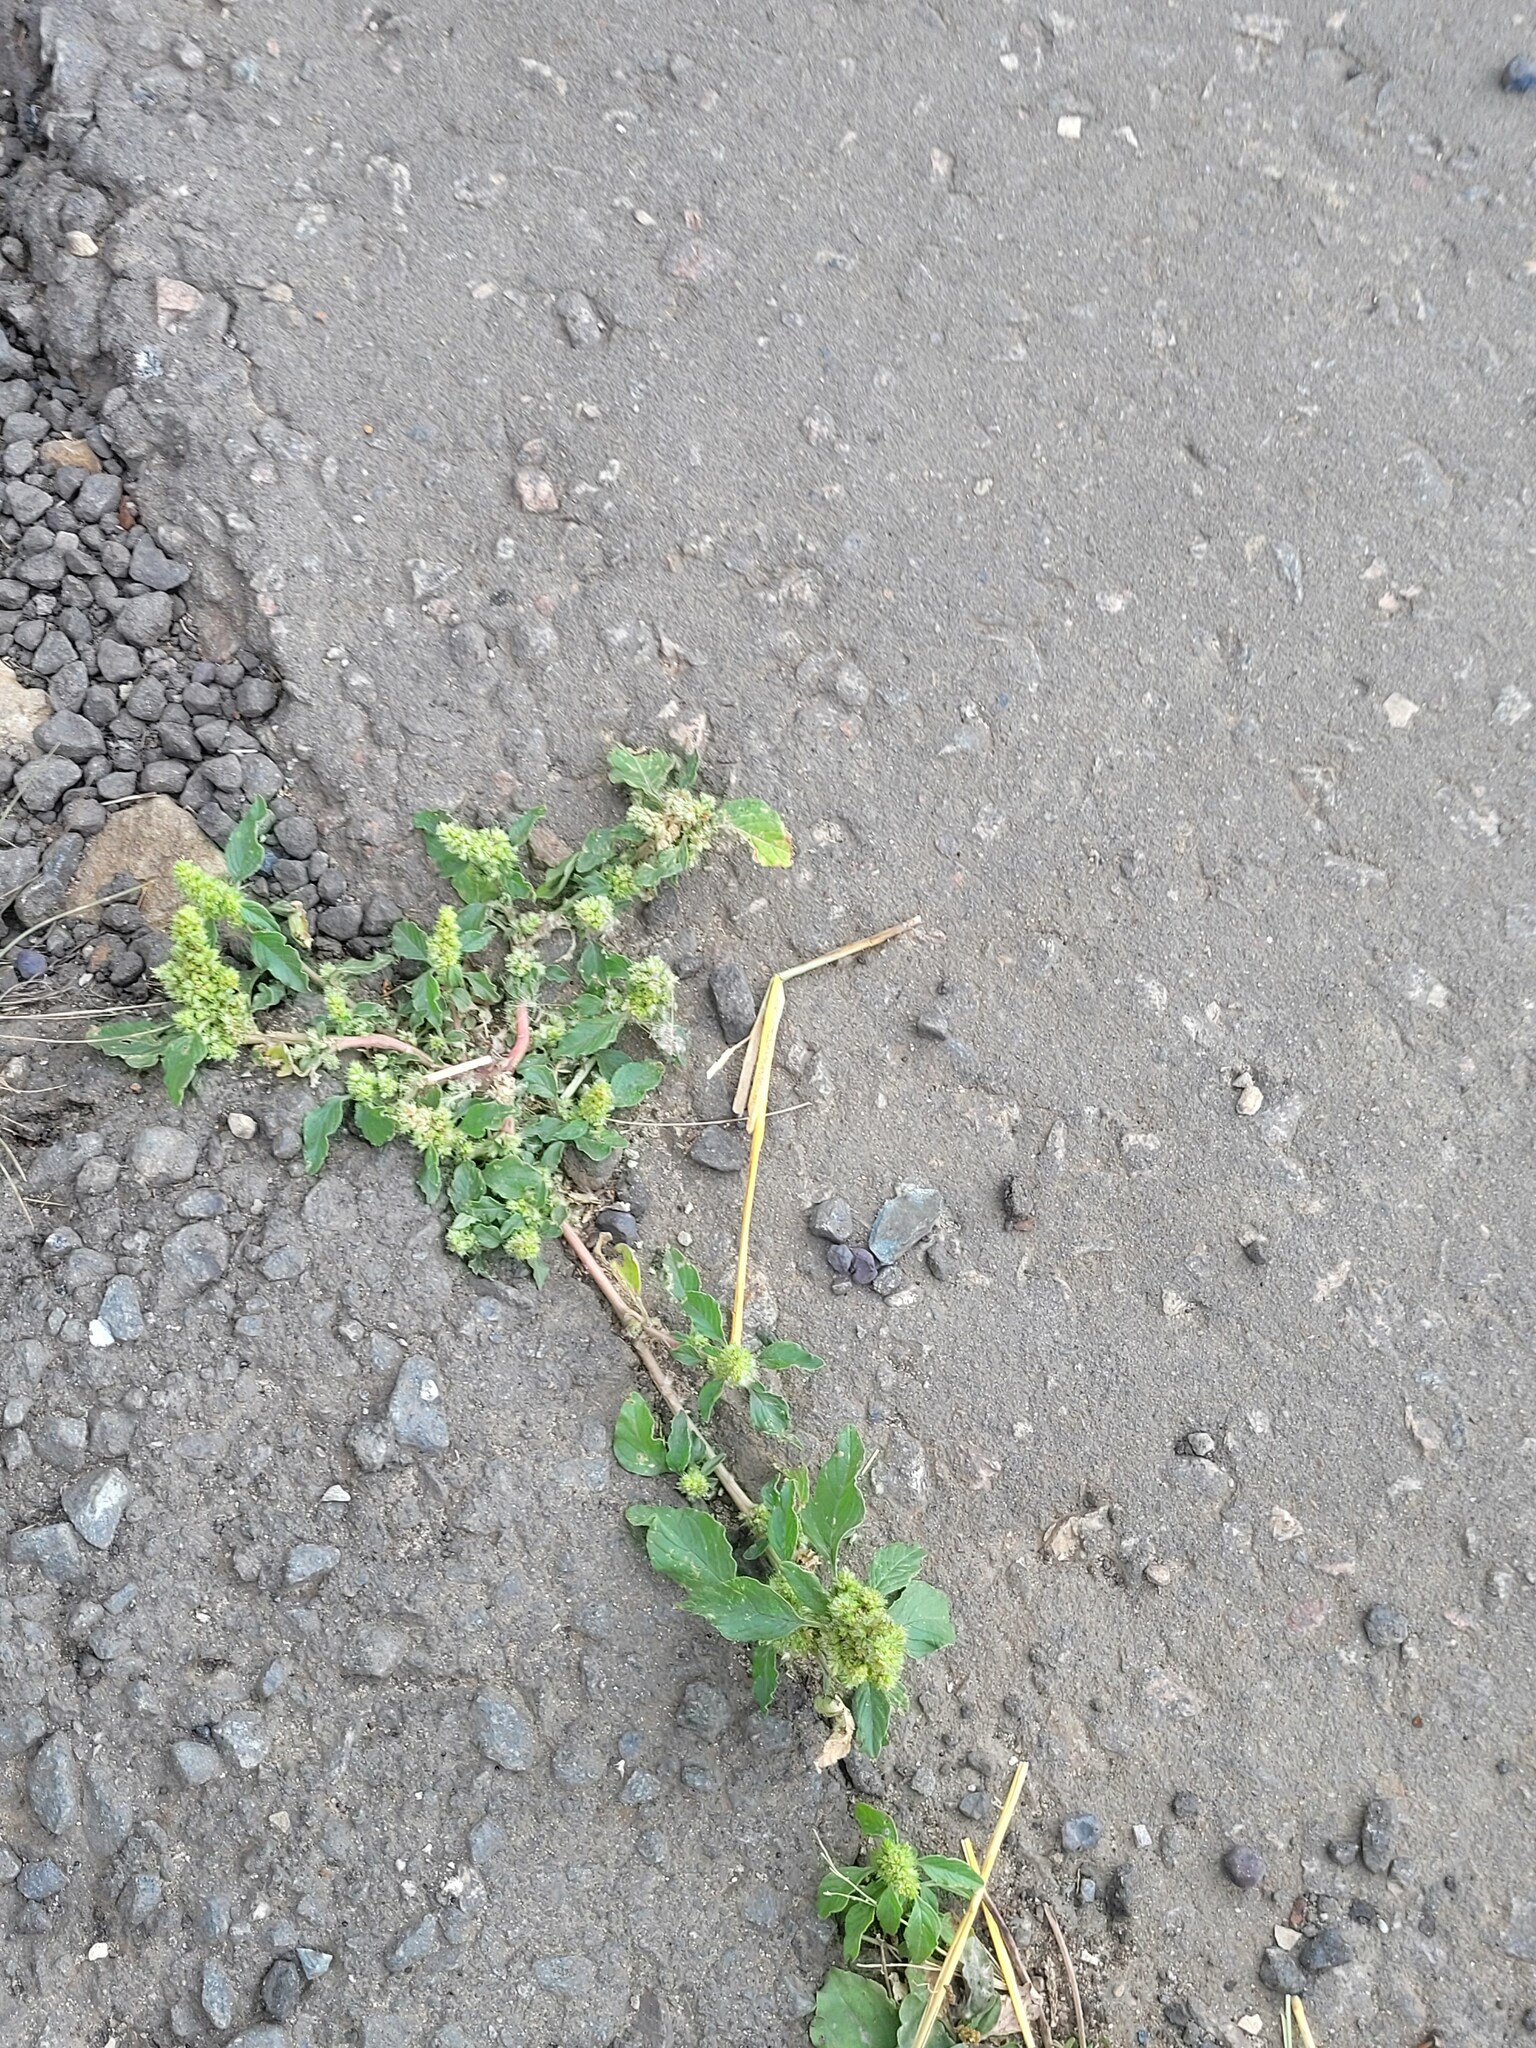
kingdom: Plantae
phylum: Tracheophyta
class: Magnoliopsida
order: Caryophyllales
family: Amaranthaceae
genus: Amaranthus
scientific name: Amaranthus retroflexus
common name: Redroot amaranth
